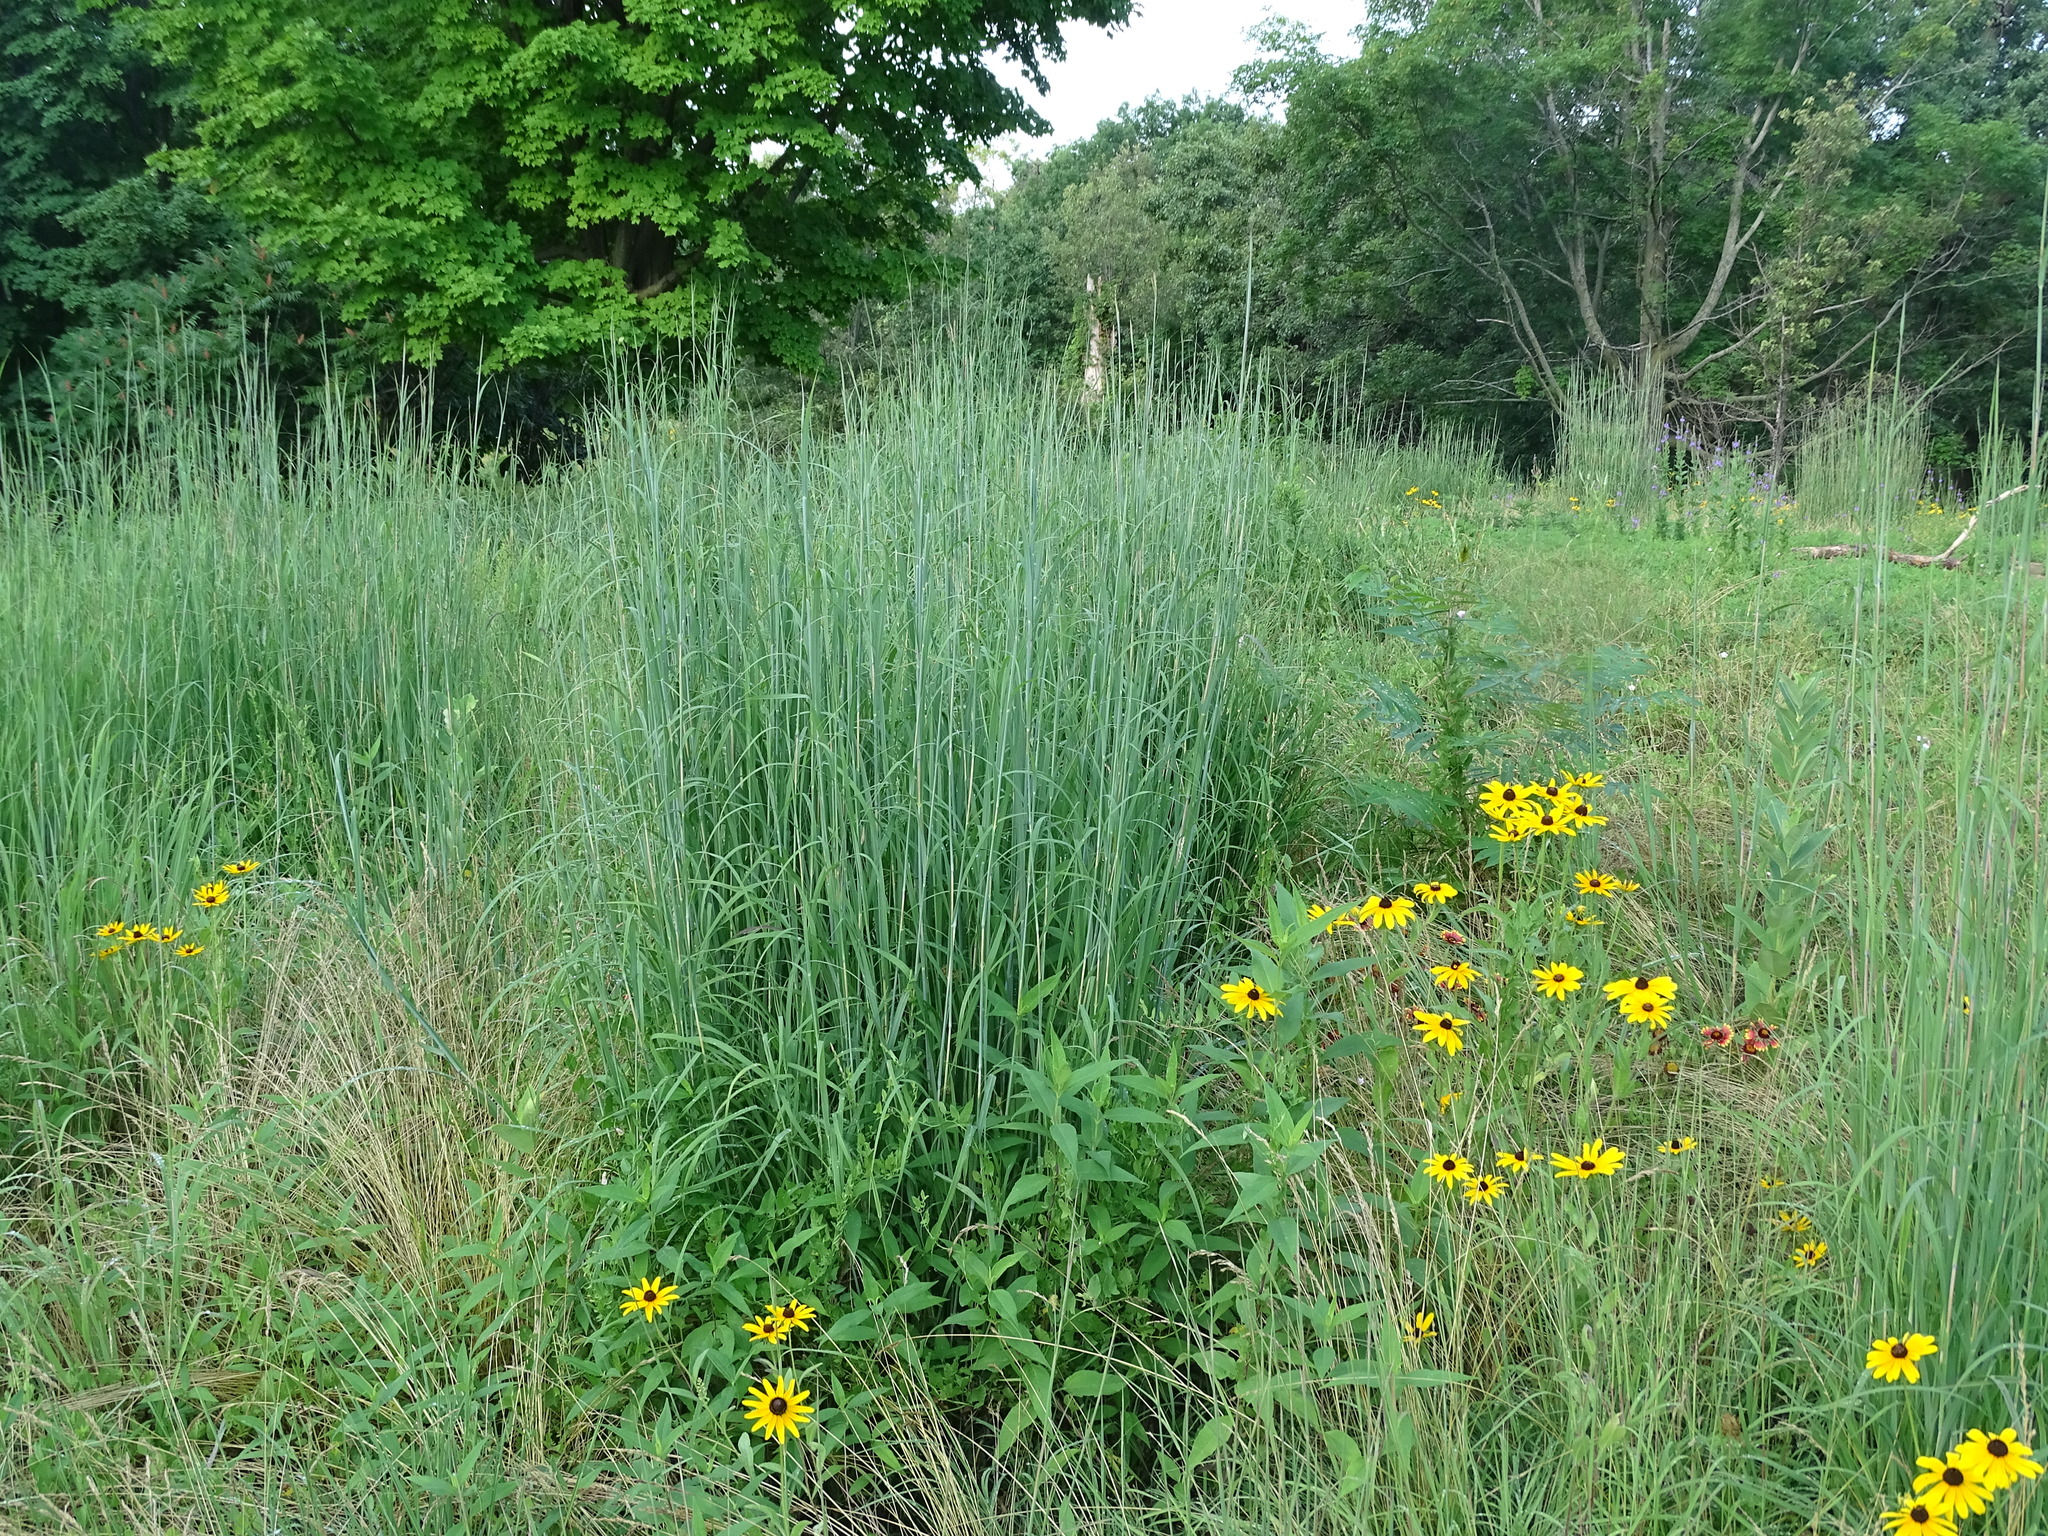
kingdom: Plantae
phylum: Tracheophyta
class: Liliopsida
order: Poales
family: Poaceae
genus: Andropogon
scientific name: Andropogon gerardi
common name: Big bluestem
